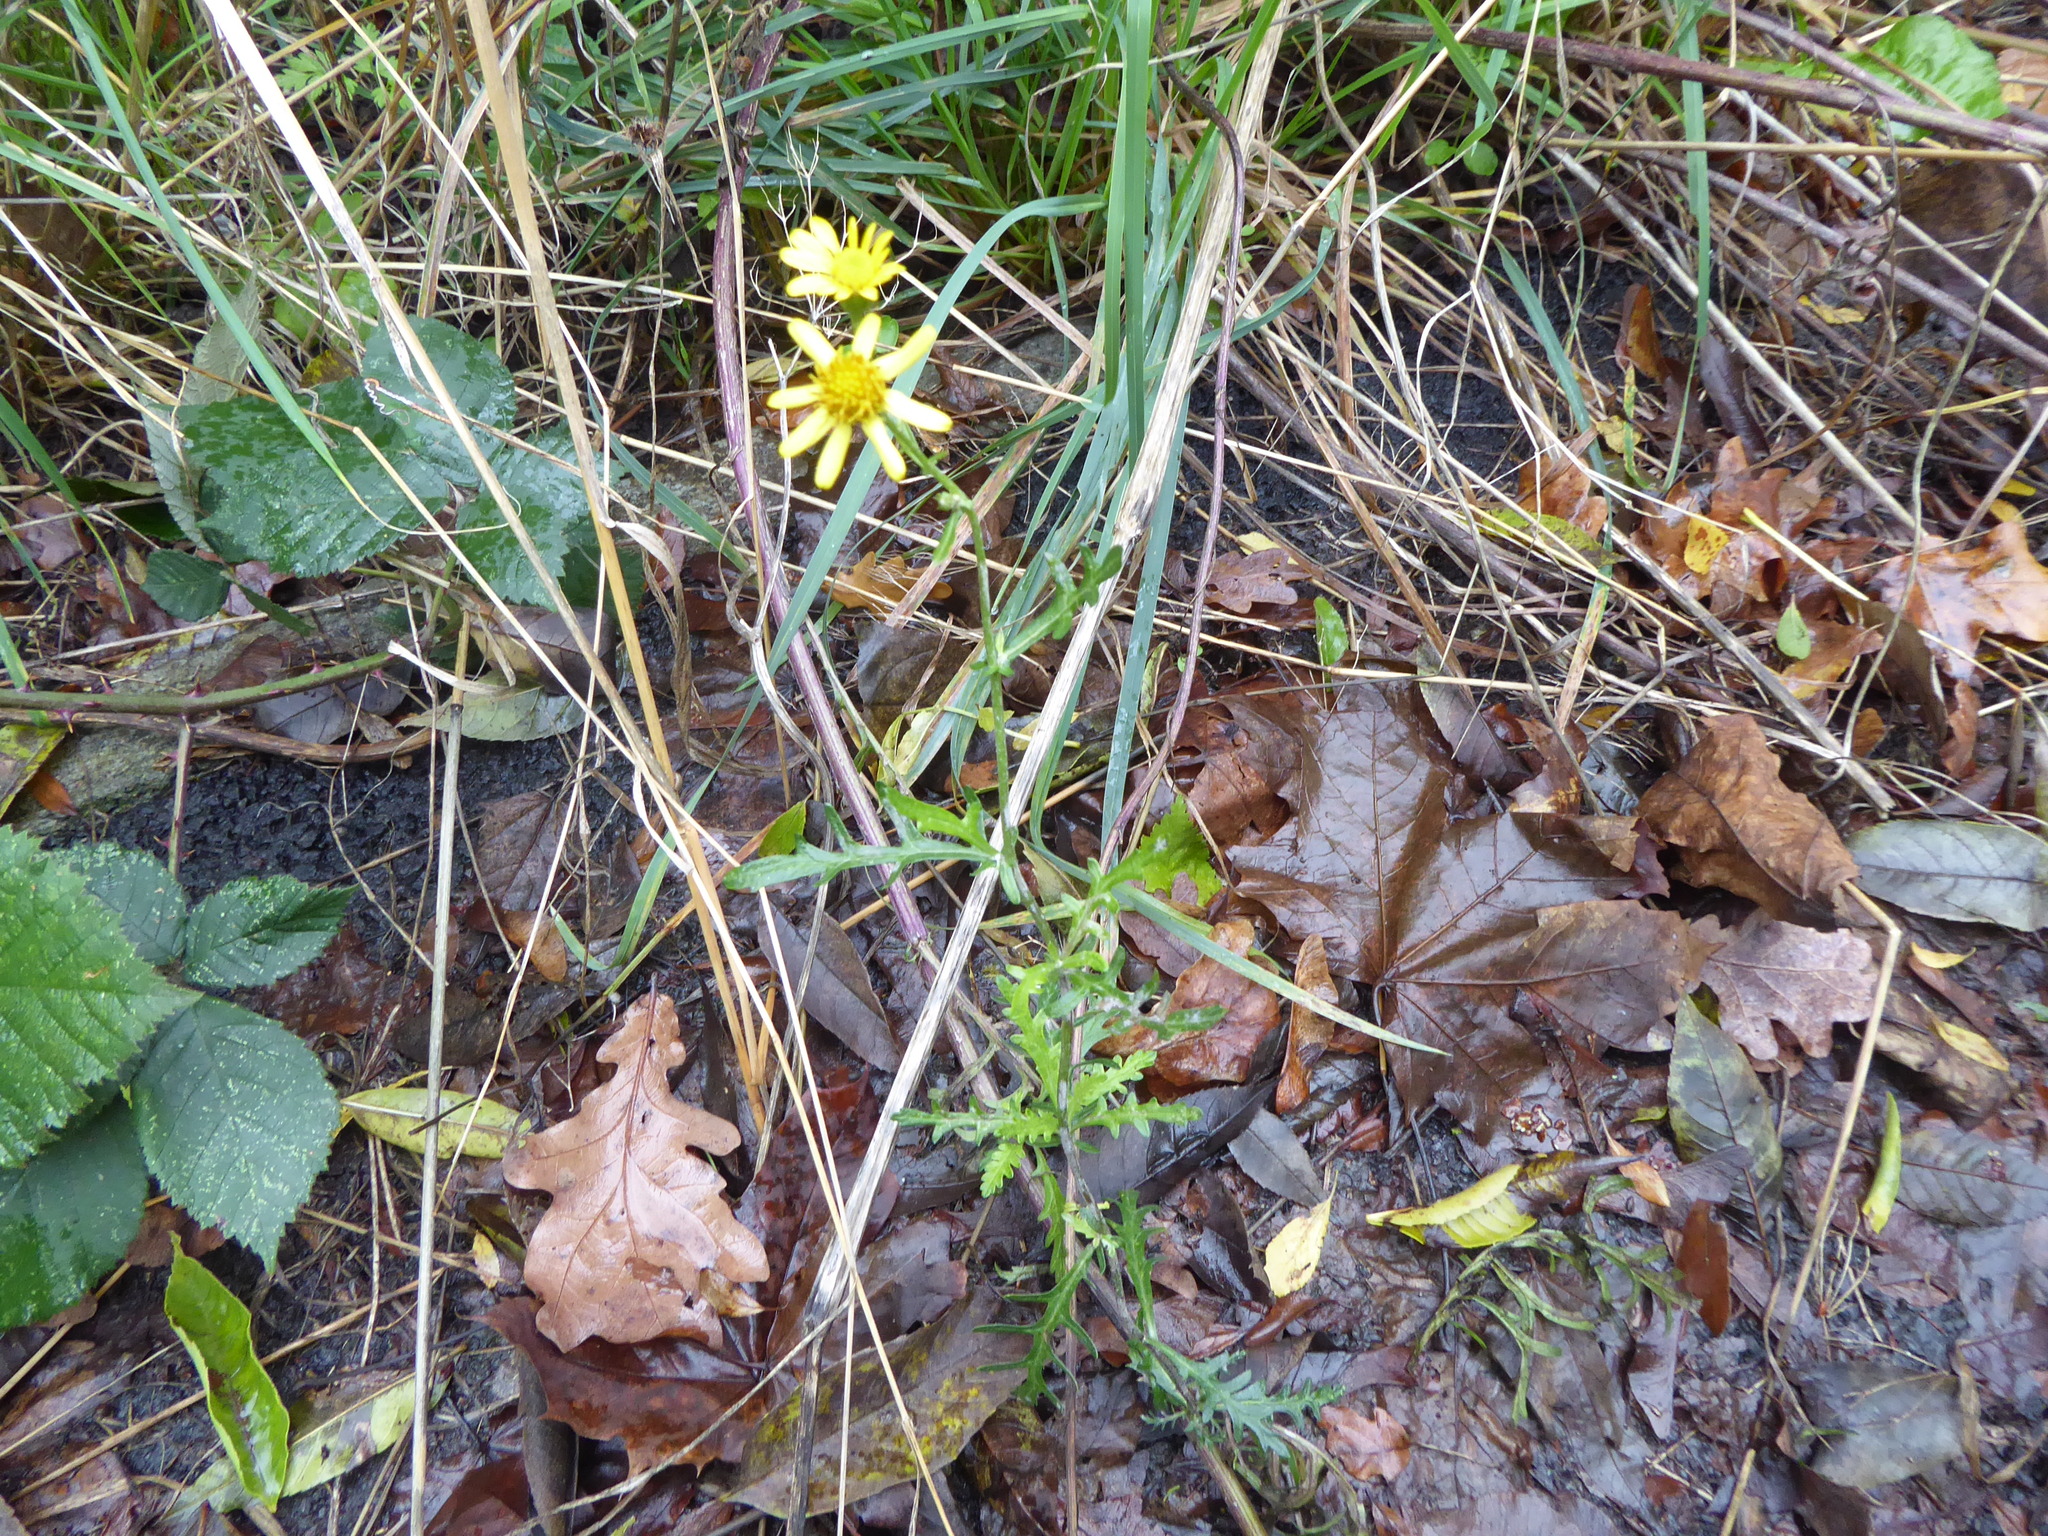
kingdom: Plantae
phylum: Tracheophyta
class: Magnoliopsida
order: Asterales
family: Asteraceae
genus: Senecio
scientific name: Senecio squalidus
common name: Oxford ragwort
